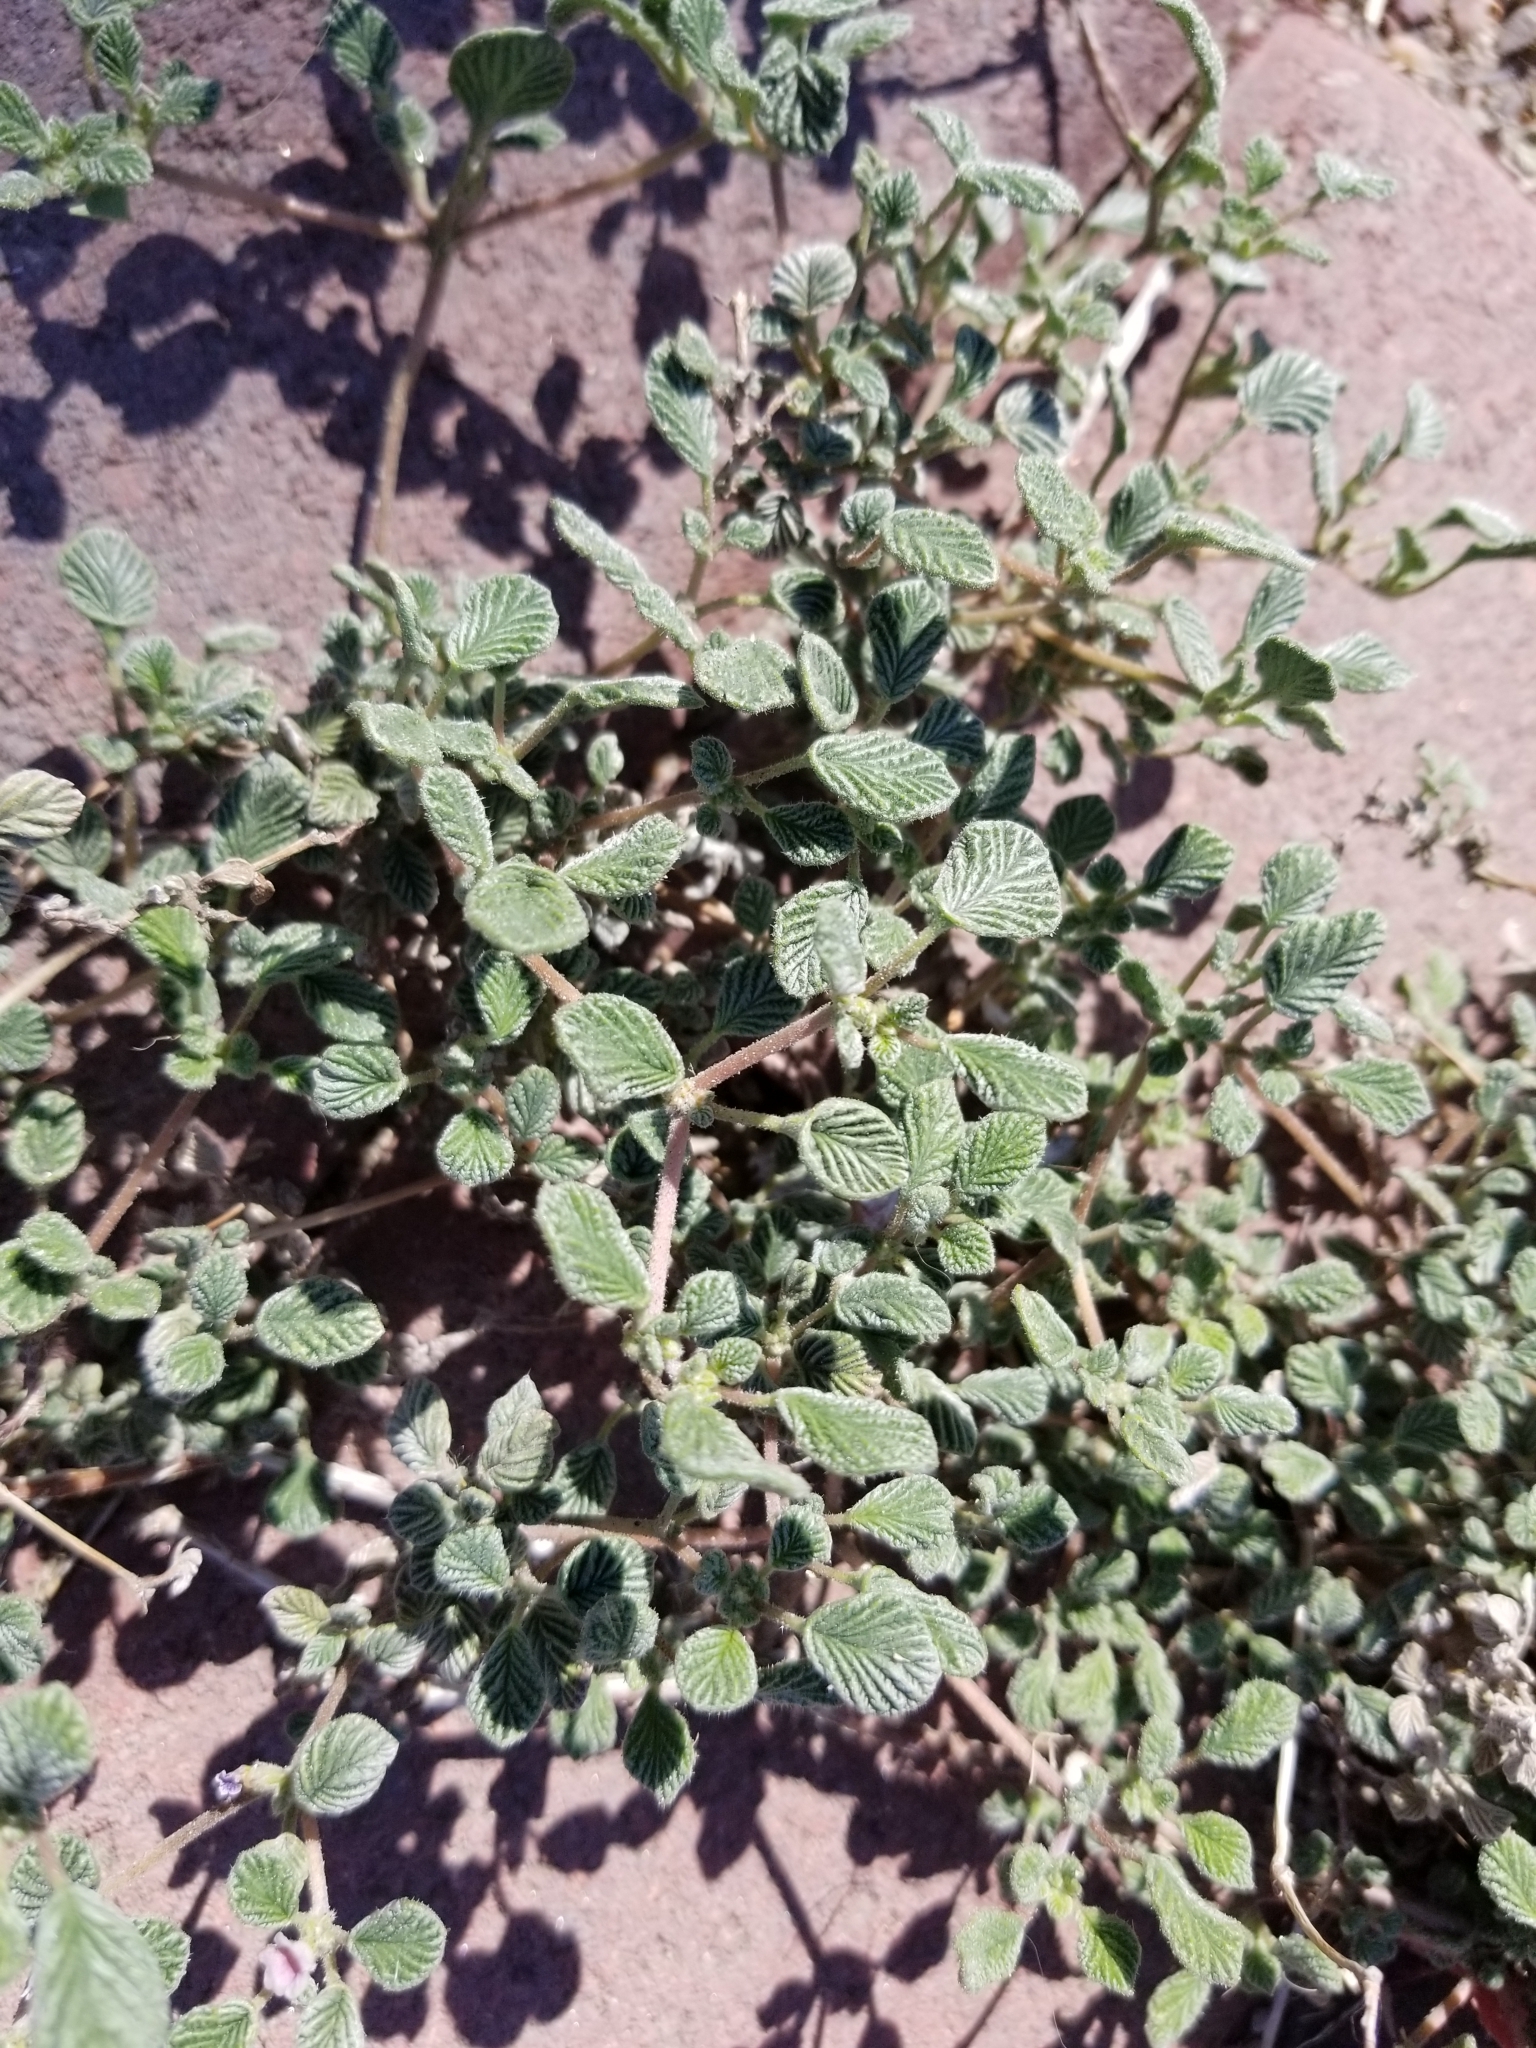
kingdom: Plantae
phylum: Tracheophyta
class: Magnoliopsida
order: Boraginales
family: Ehretiaceae
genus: Tiquilia
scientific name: Tiquilia plicata
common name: Fan-leaf tiquilia
